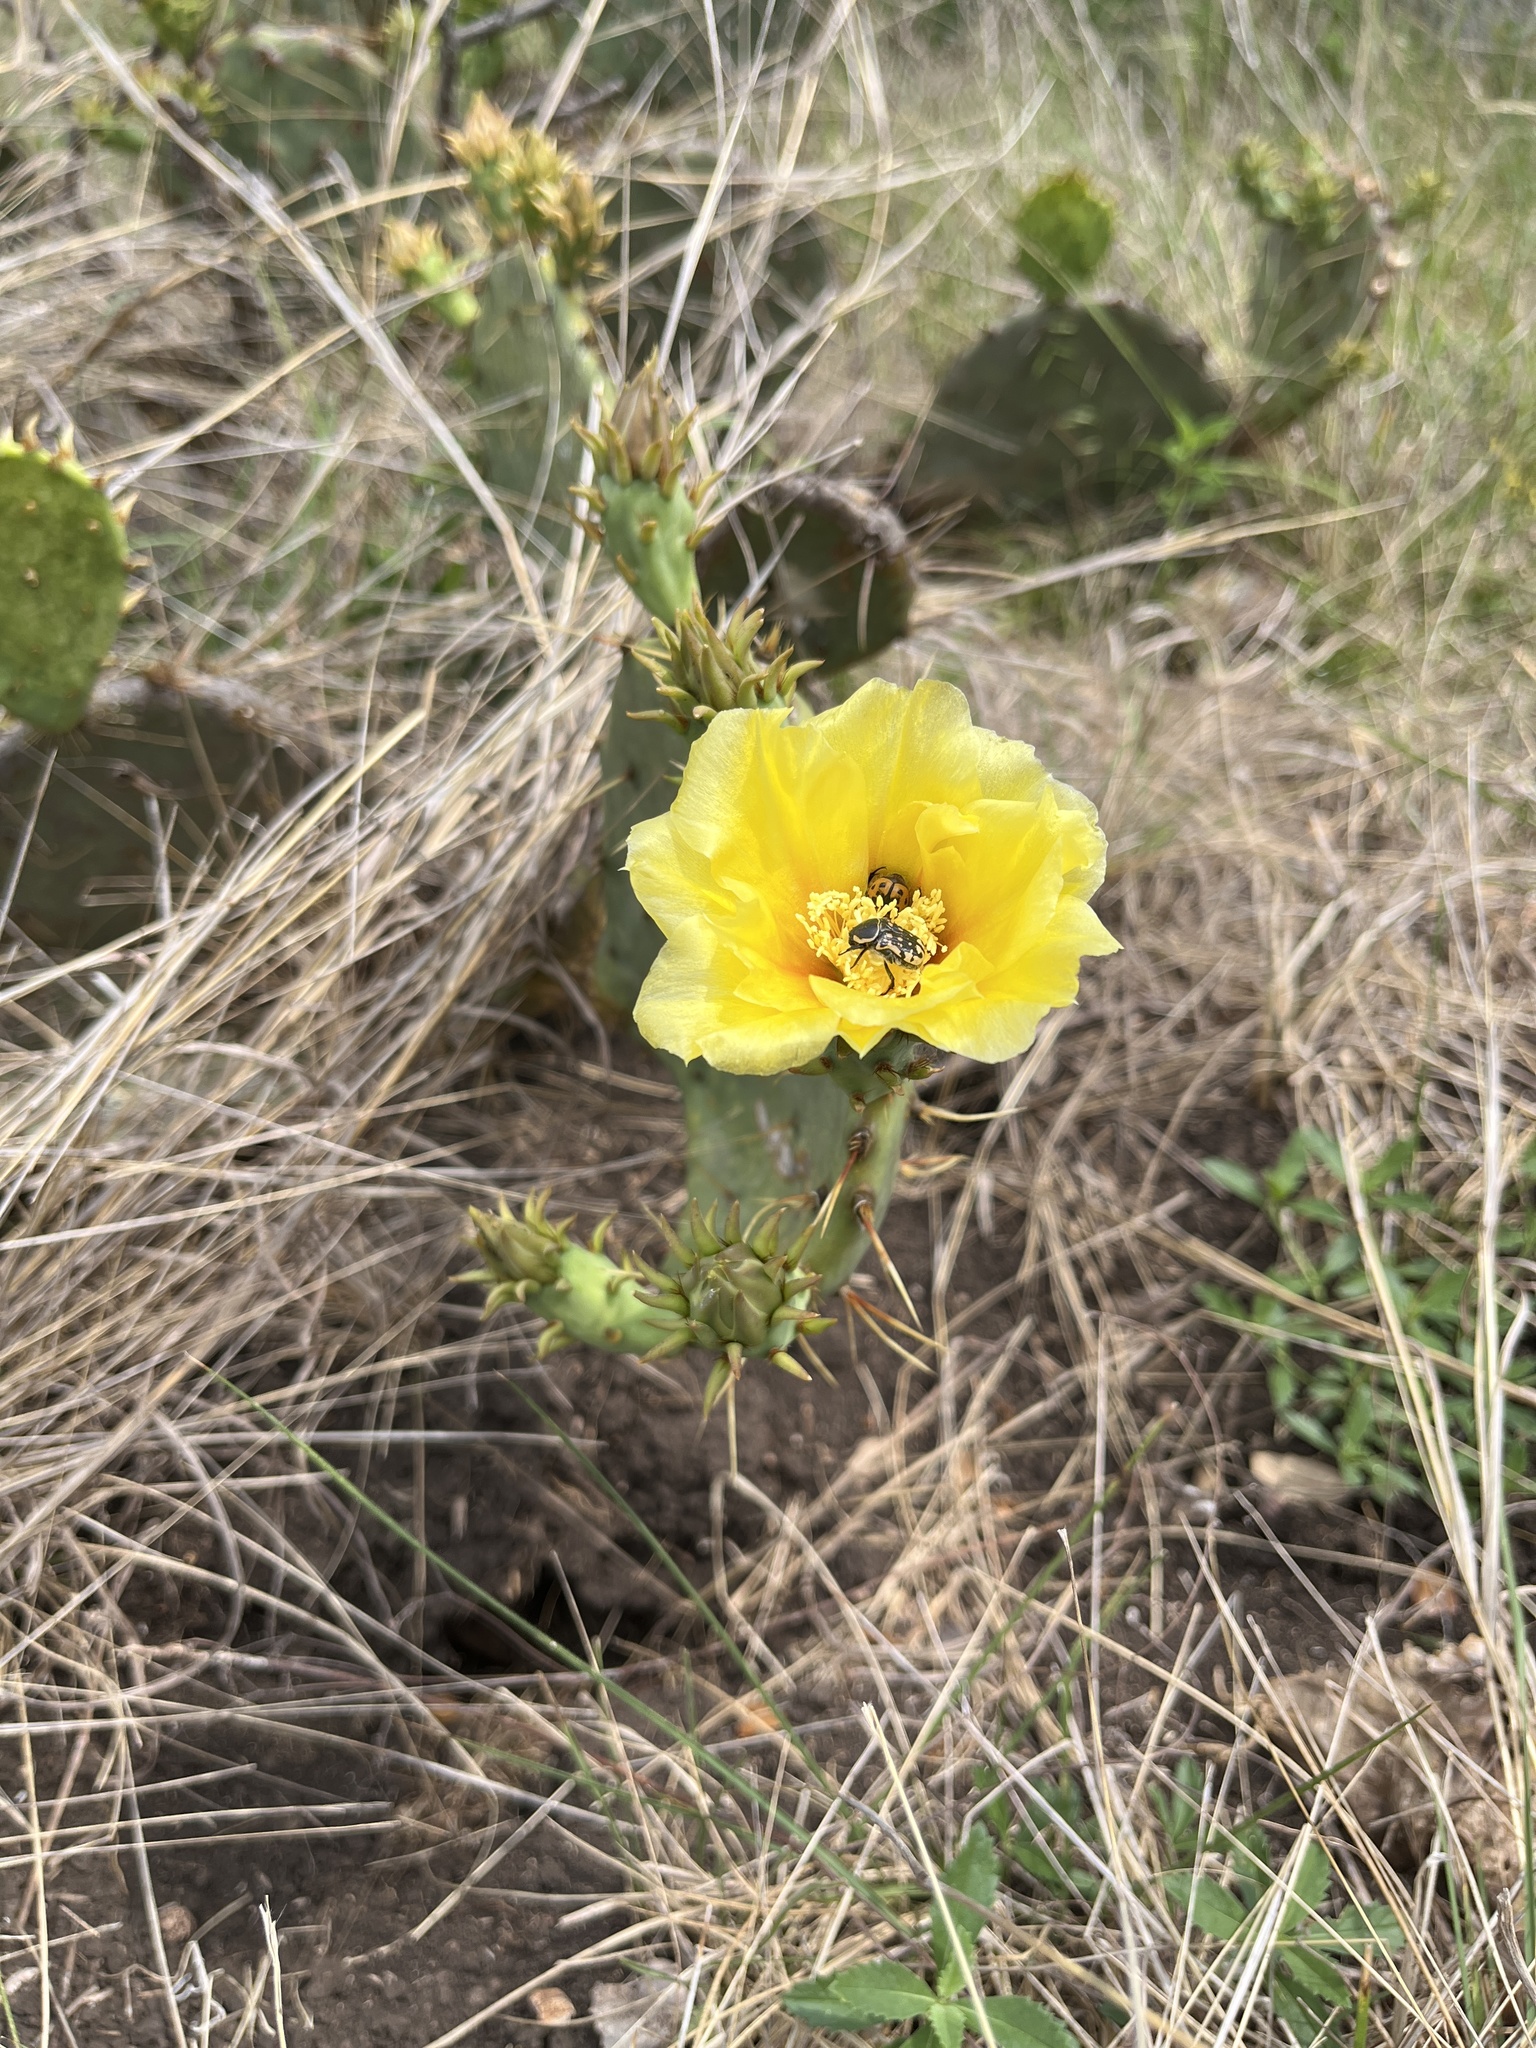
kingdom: Animalia
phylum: Arthropoda
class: Insecta
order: Coleoptera
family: Scarabaeidae
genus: Euphoria
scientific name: Euphoria kernii
